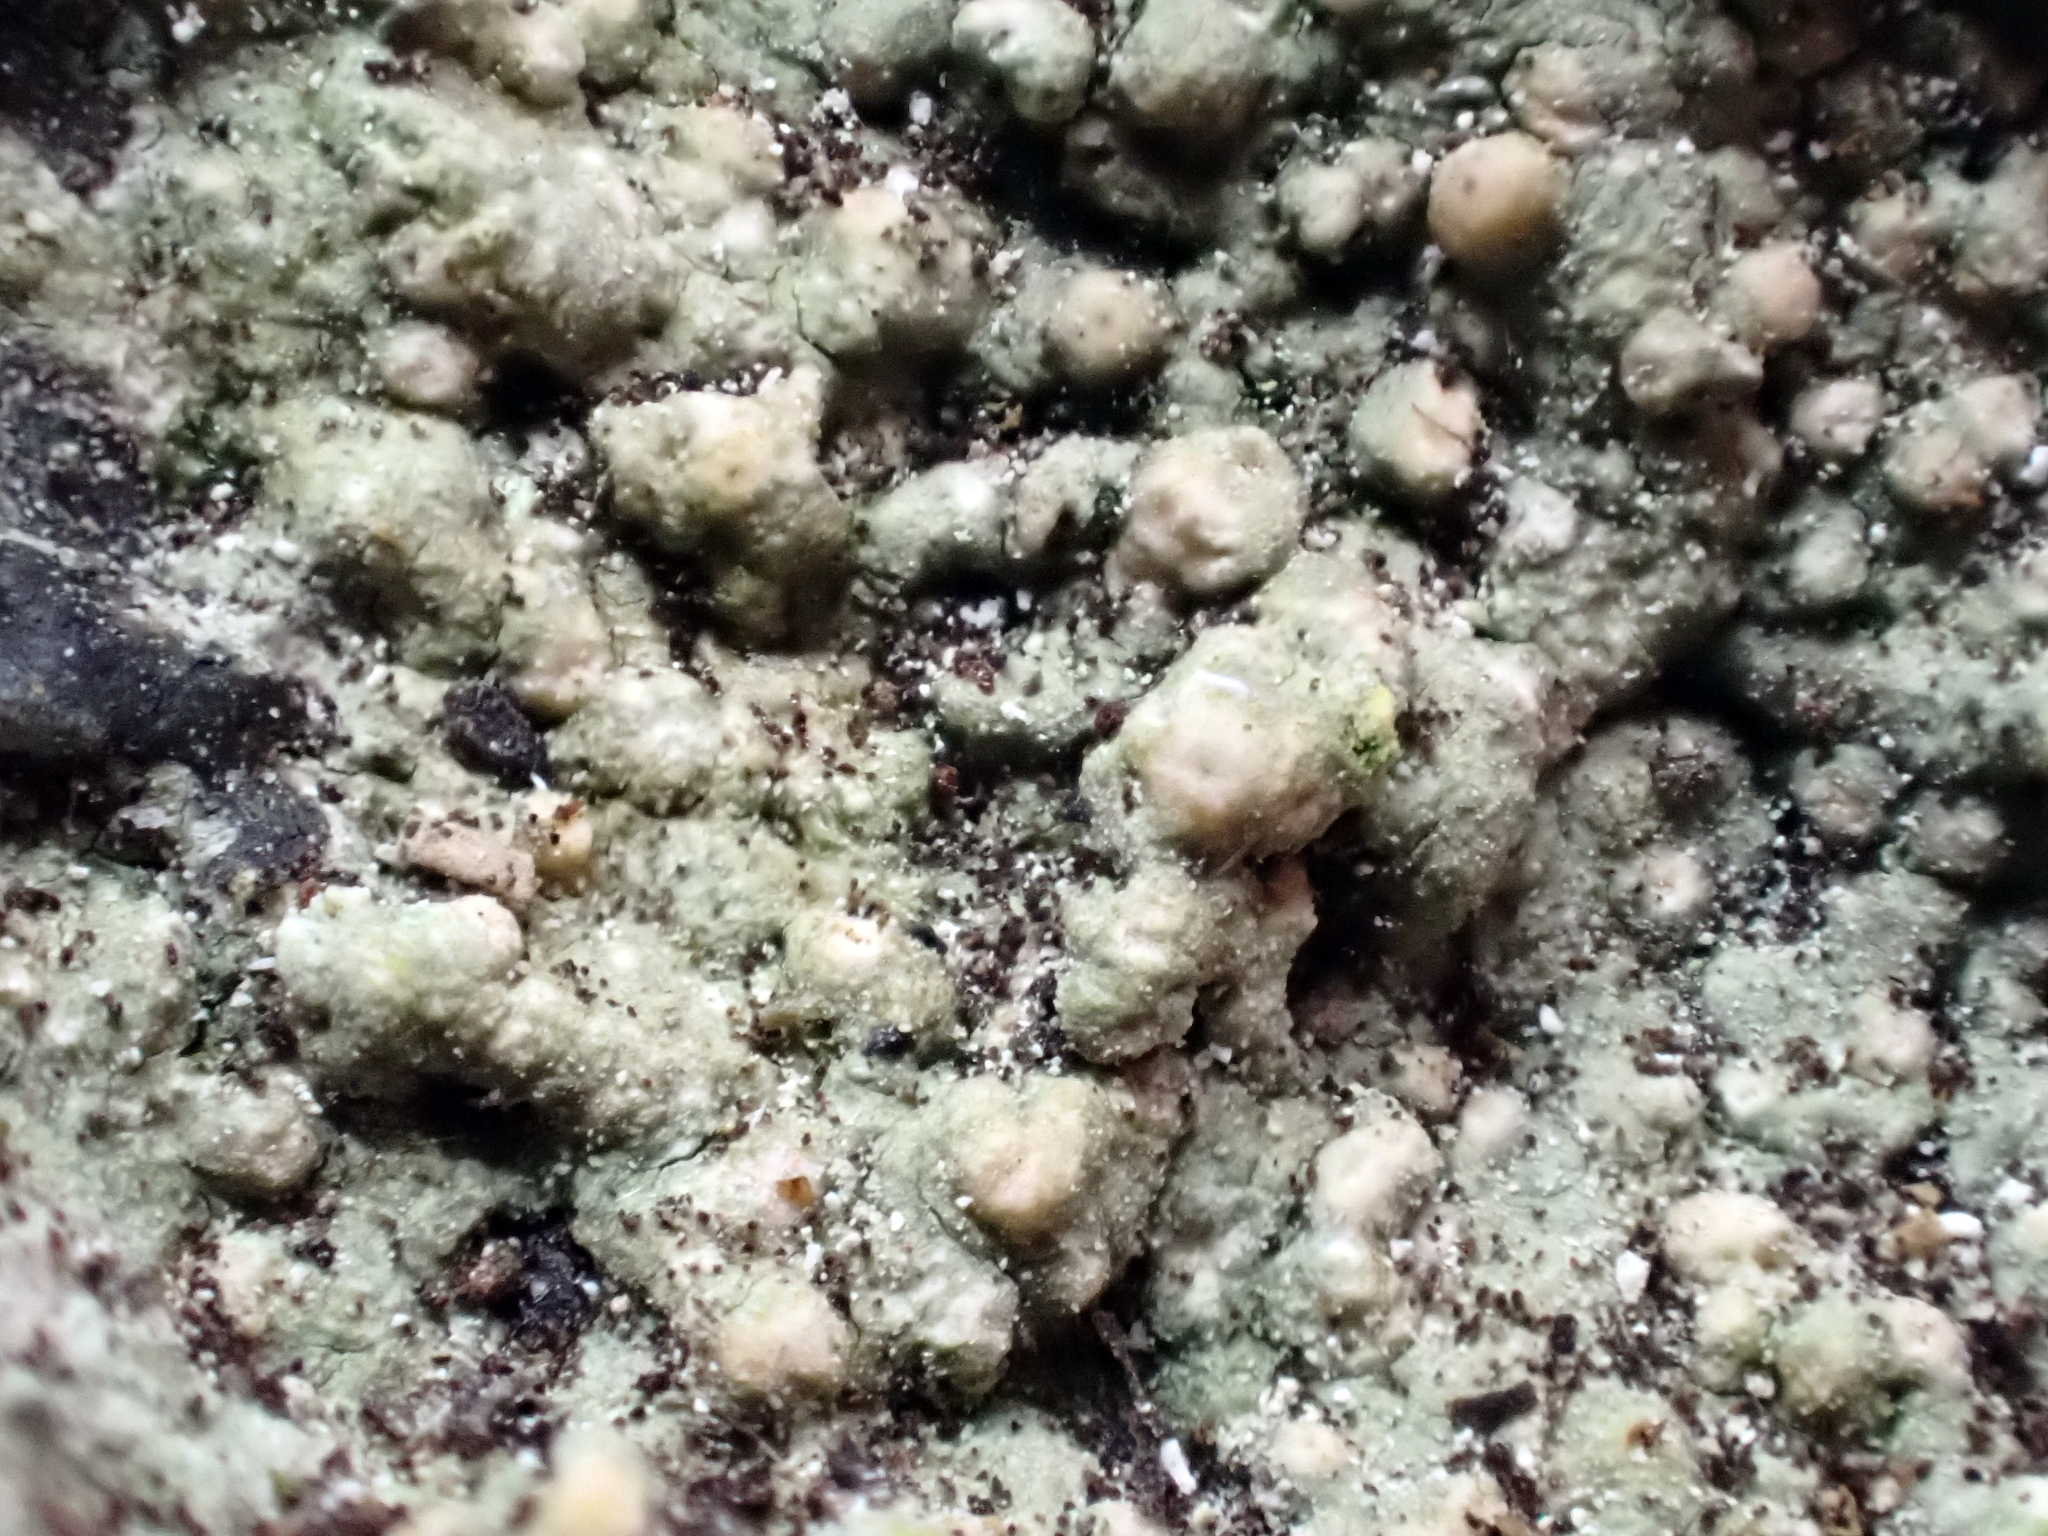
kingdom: Fungi
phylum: Ascomycota
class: Lecanoromycetes
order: Ostropales
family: Stictidaceae
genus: Topelia
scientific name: Topelia rosea
